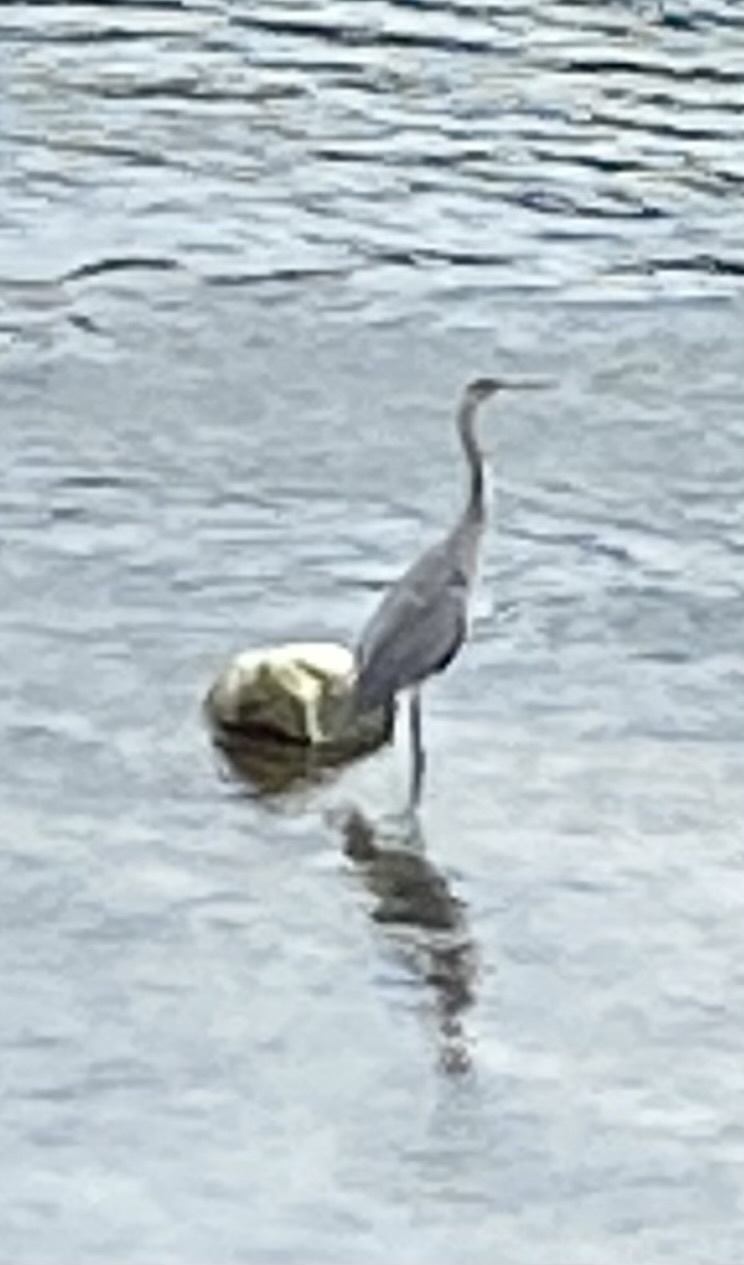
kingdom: Animalia
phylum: Chordata
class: Aves
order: Pelecaniformes
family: Ardeidae
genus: Ardea
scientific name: Ardea herodias
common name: Great blue heron
